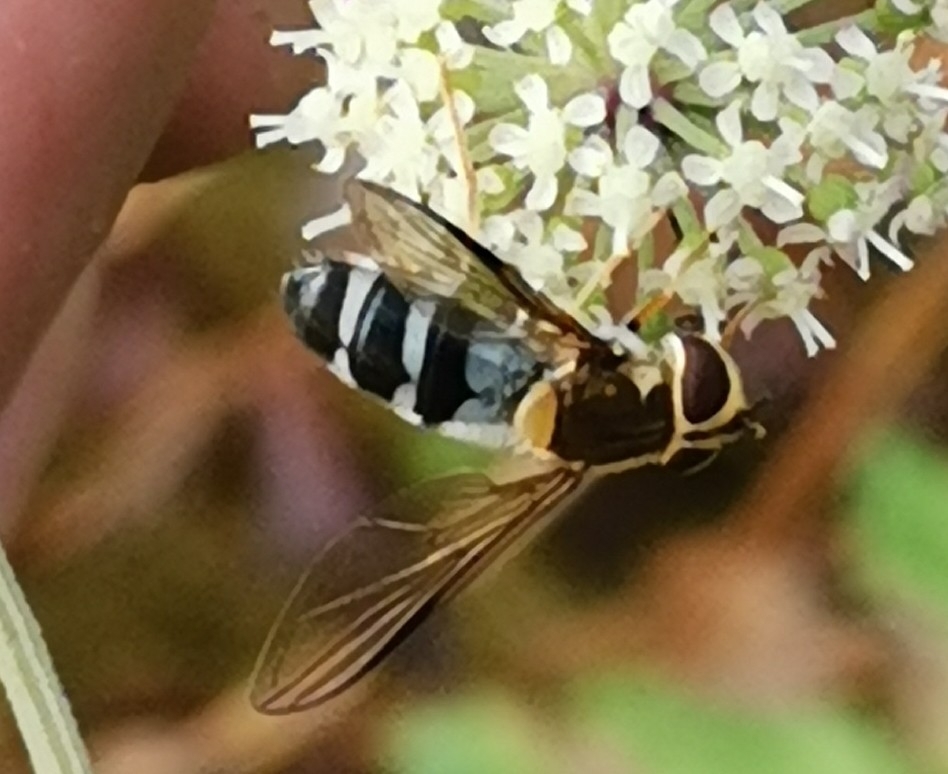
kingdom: Animalia
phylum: Arthropoda
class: Insecta
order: Diptera
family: Syrphidae
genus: Leucozona
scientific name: Leucozona glaucia
